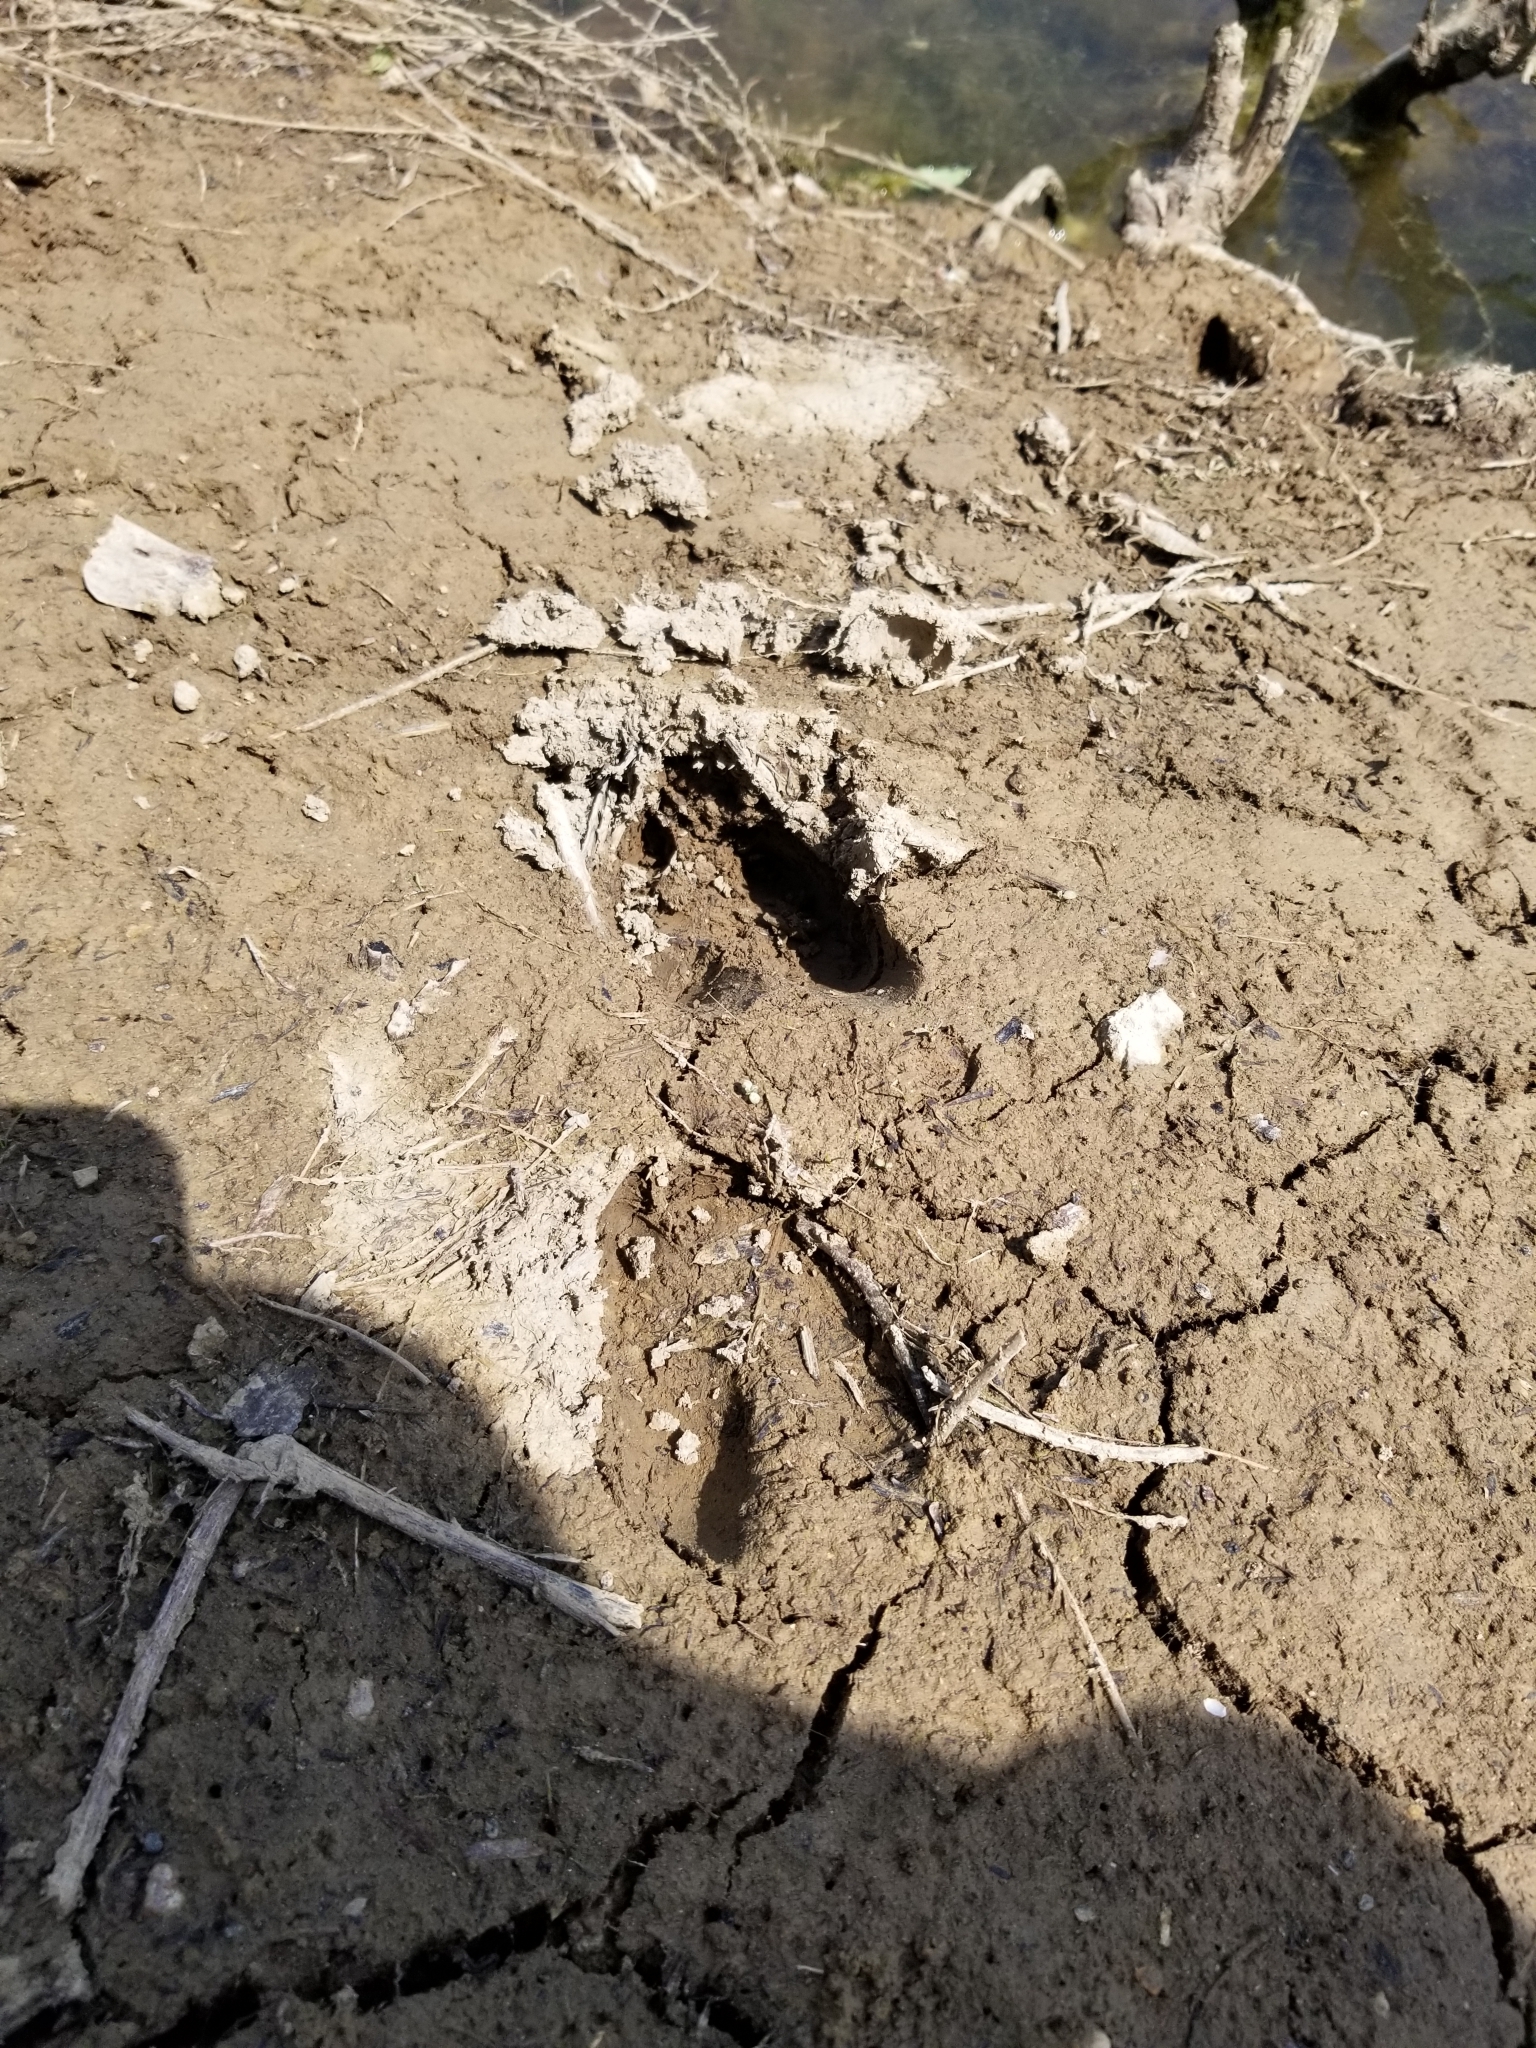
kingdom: Animalia
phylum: Chordata
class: Mammalia
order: Artiodactyla
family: Cervidae
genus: Odocoileus
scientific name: Odocoileus virginianus
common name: White-tailed deer
